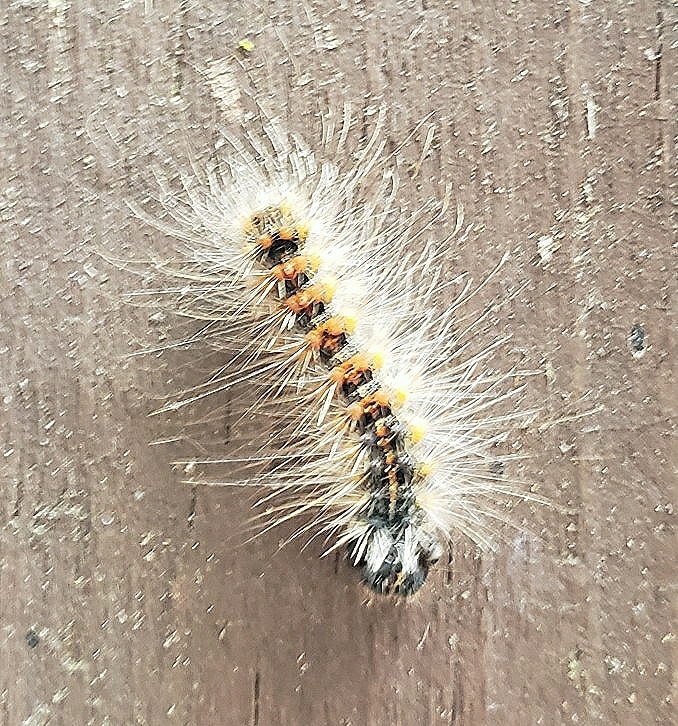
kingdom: Animalia
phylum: Arthropoda
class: Insecta
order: Lepidoptera
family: Erebidae
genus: Lymantria
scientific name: Lymantria dispar
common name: Gypsy moth
